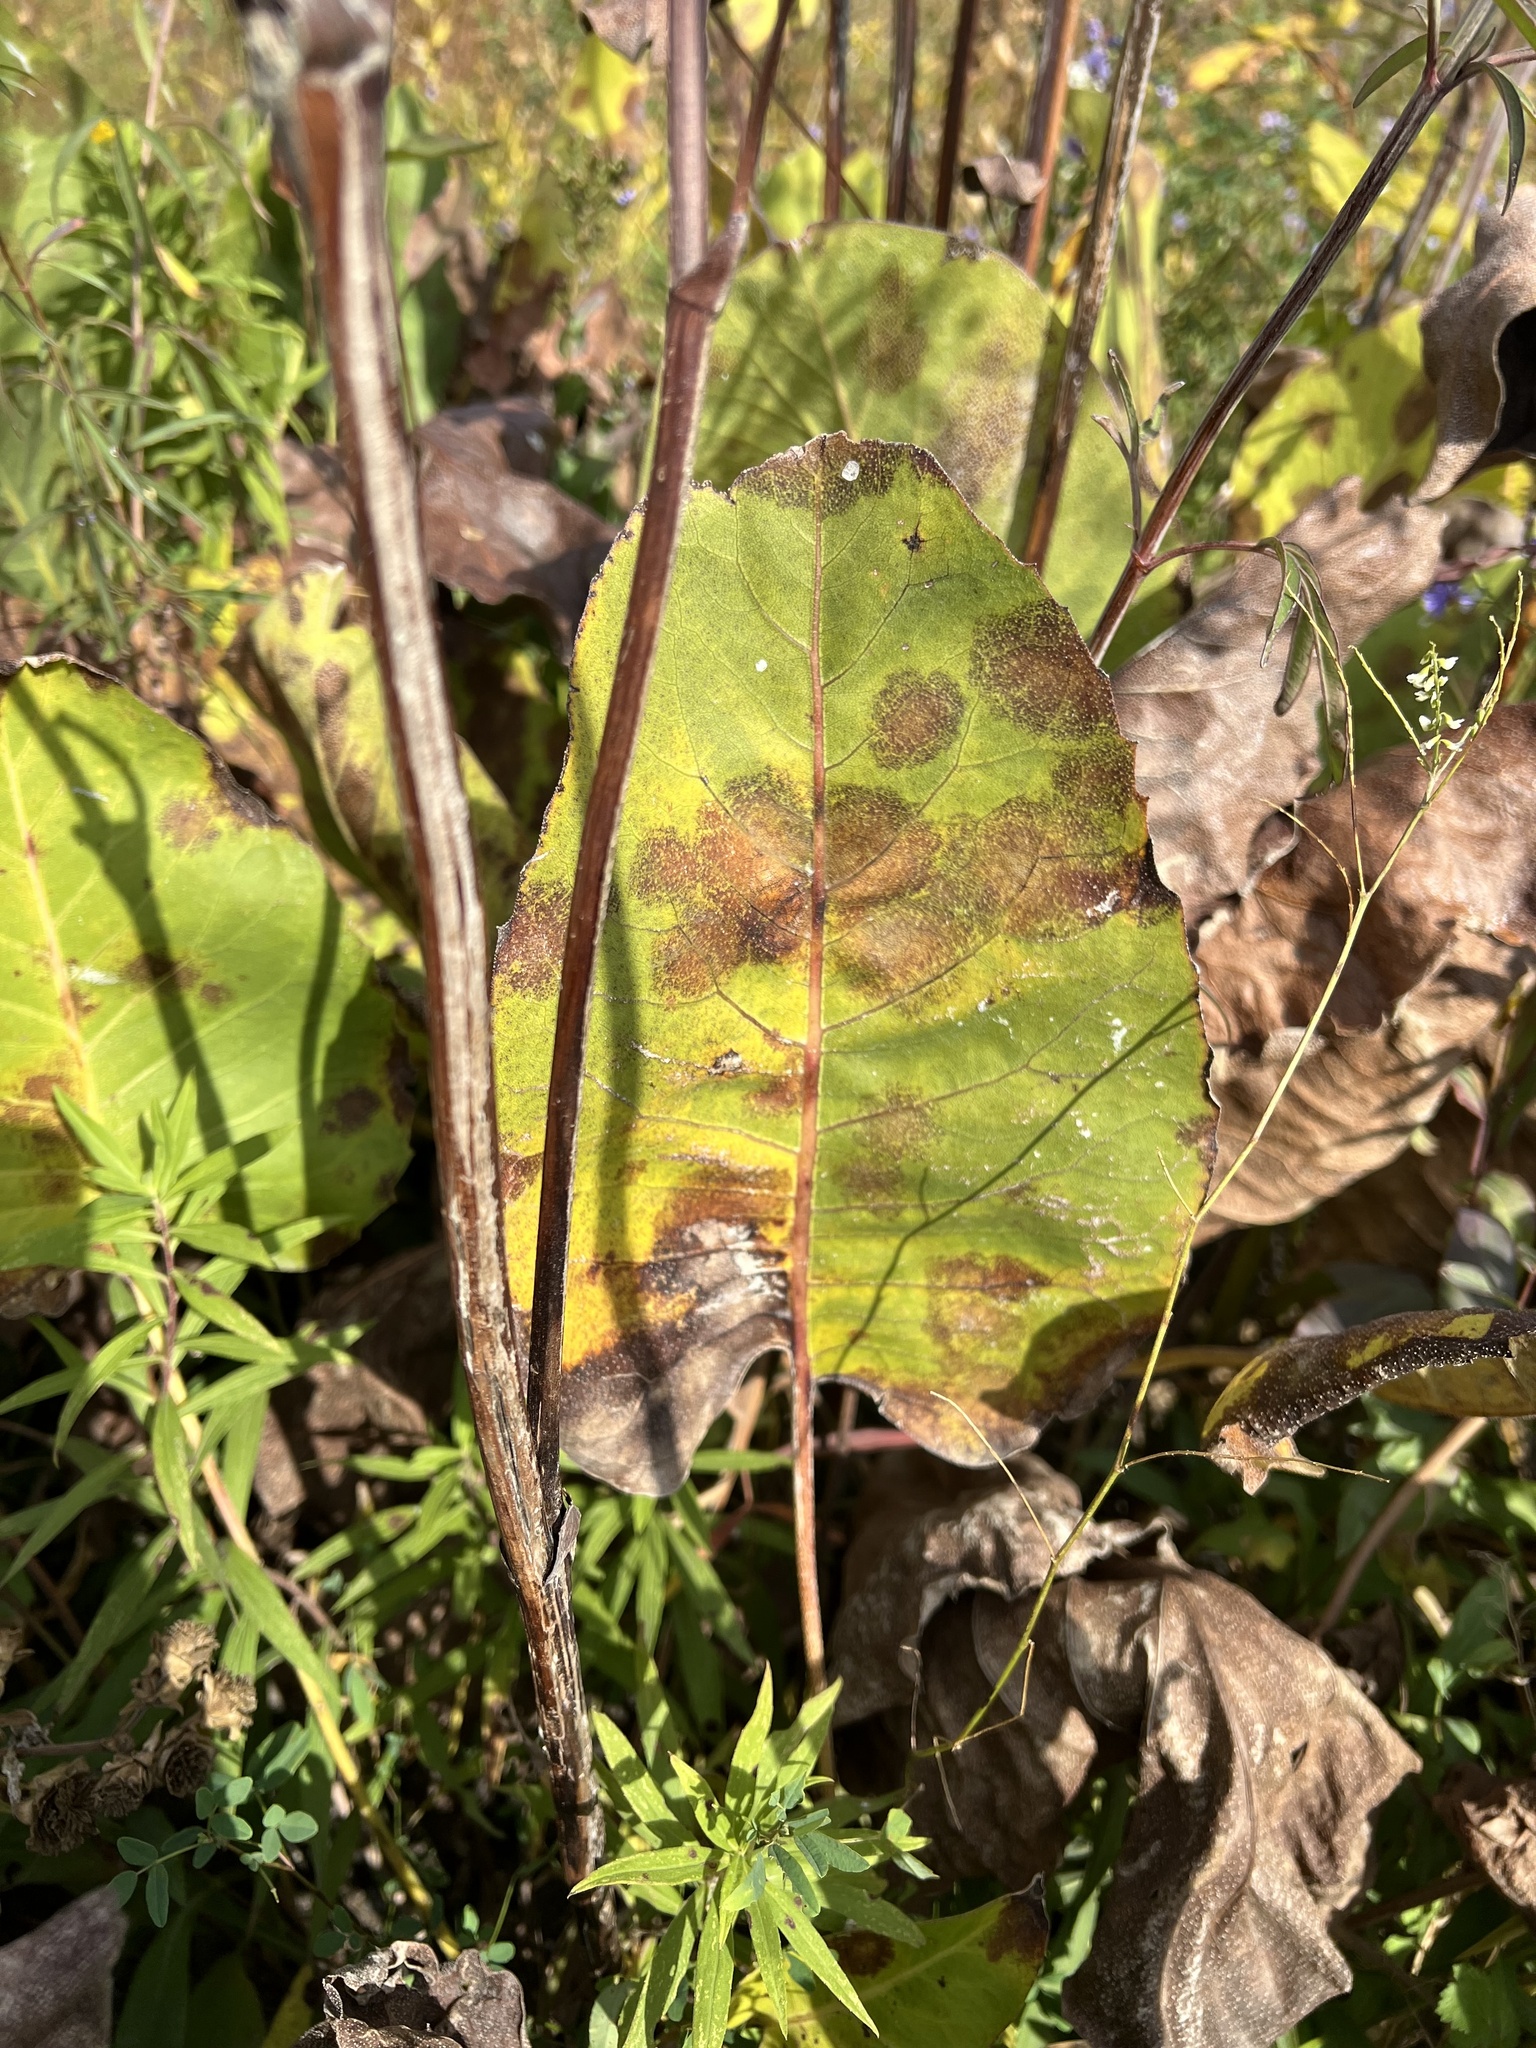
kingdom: Plantae
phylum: Tracheophyta
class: Magnoliopsida
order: Asterales
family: Asteraceae
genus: Silphium
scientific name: Silphium terebinthinaceum
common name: Basal-leaf rosinweed
